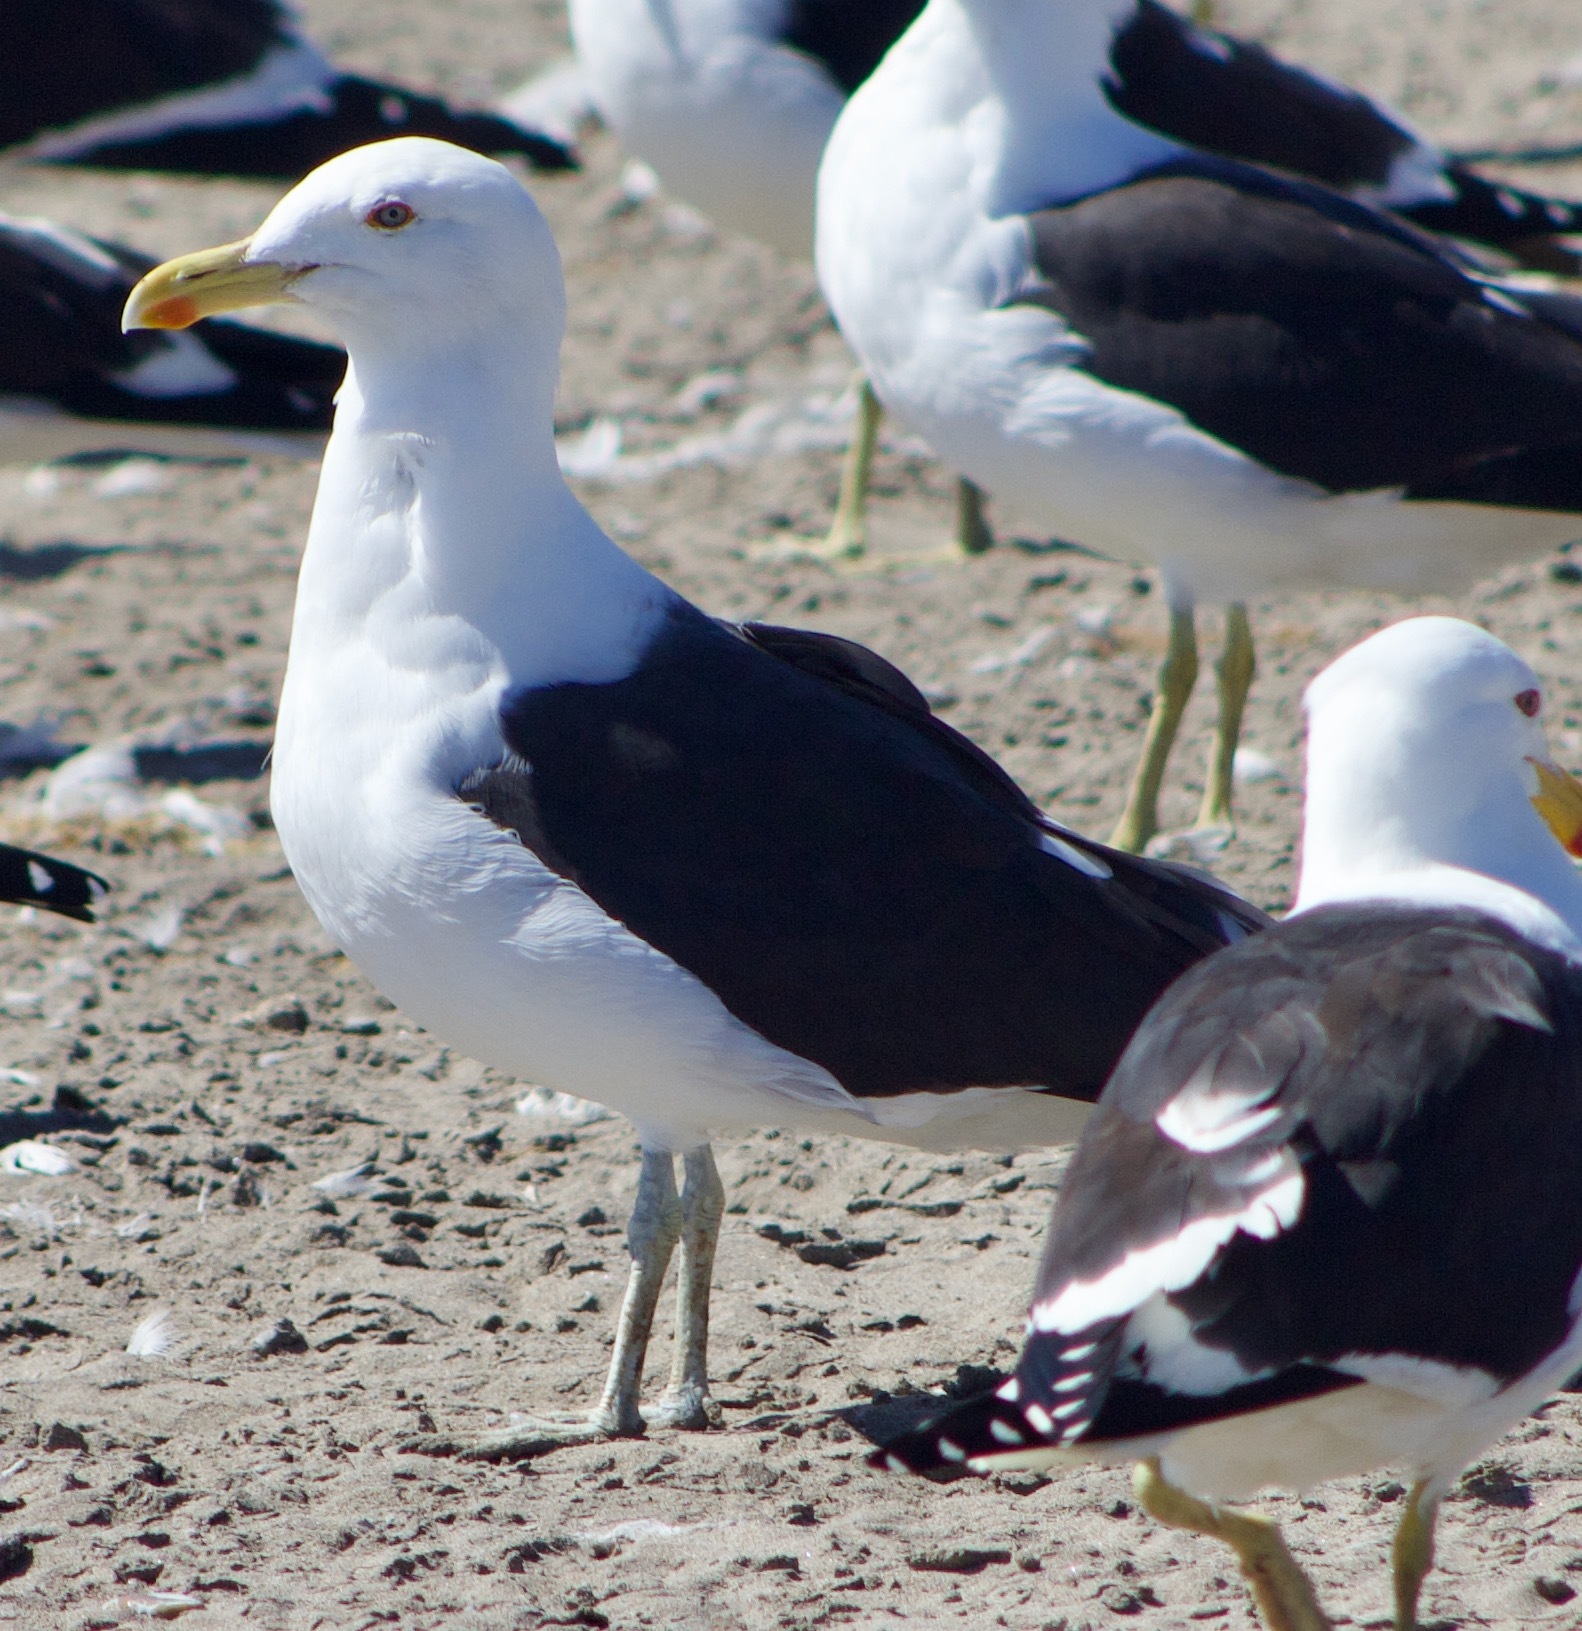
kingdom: Animalia
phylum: Chordata
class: Aves
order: Charadriiformes
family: Laridae
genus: Larus
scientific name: Larus dominicanus
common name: Kelp gull
